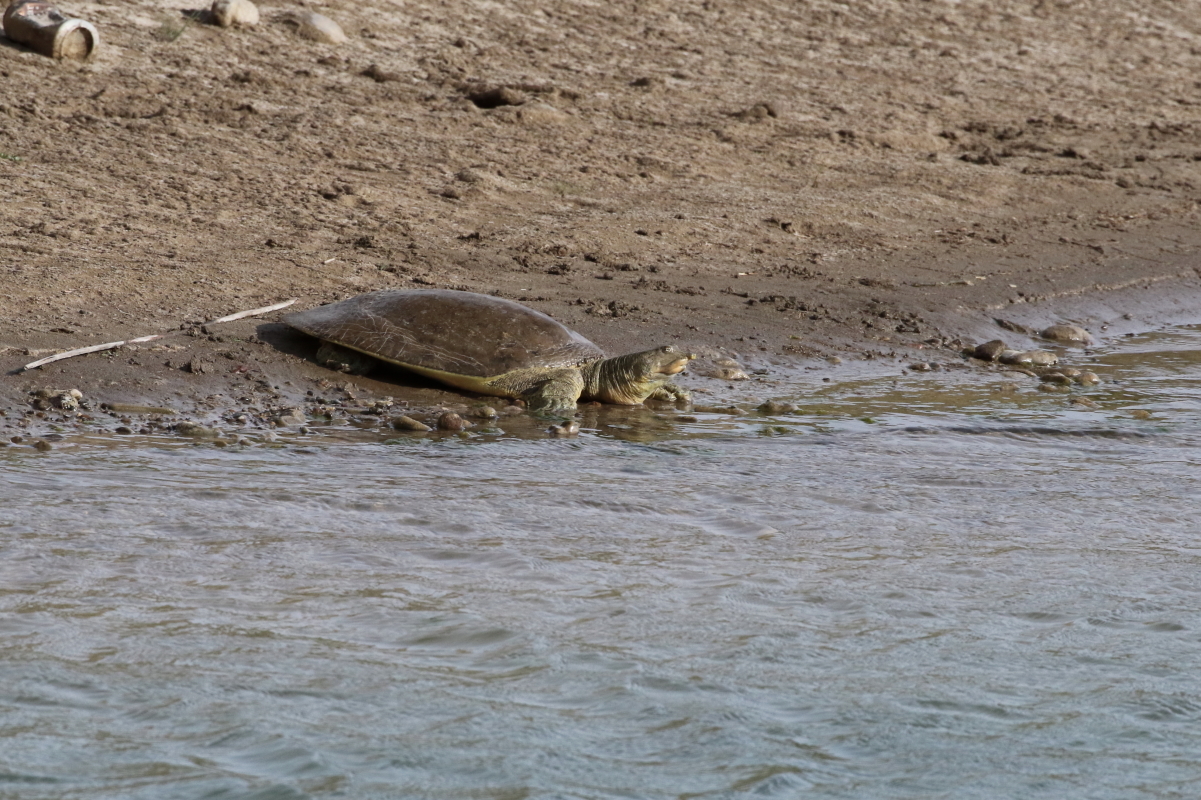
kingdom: Animalia
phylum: Chordata
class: Testudines
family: Trionychidae
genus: Apalone
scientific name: Apalone spinifera
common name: Spiny softshell turtle
